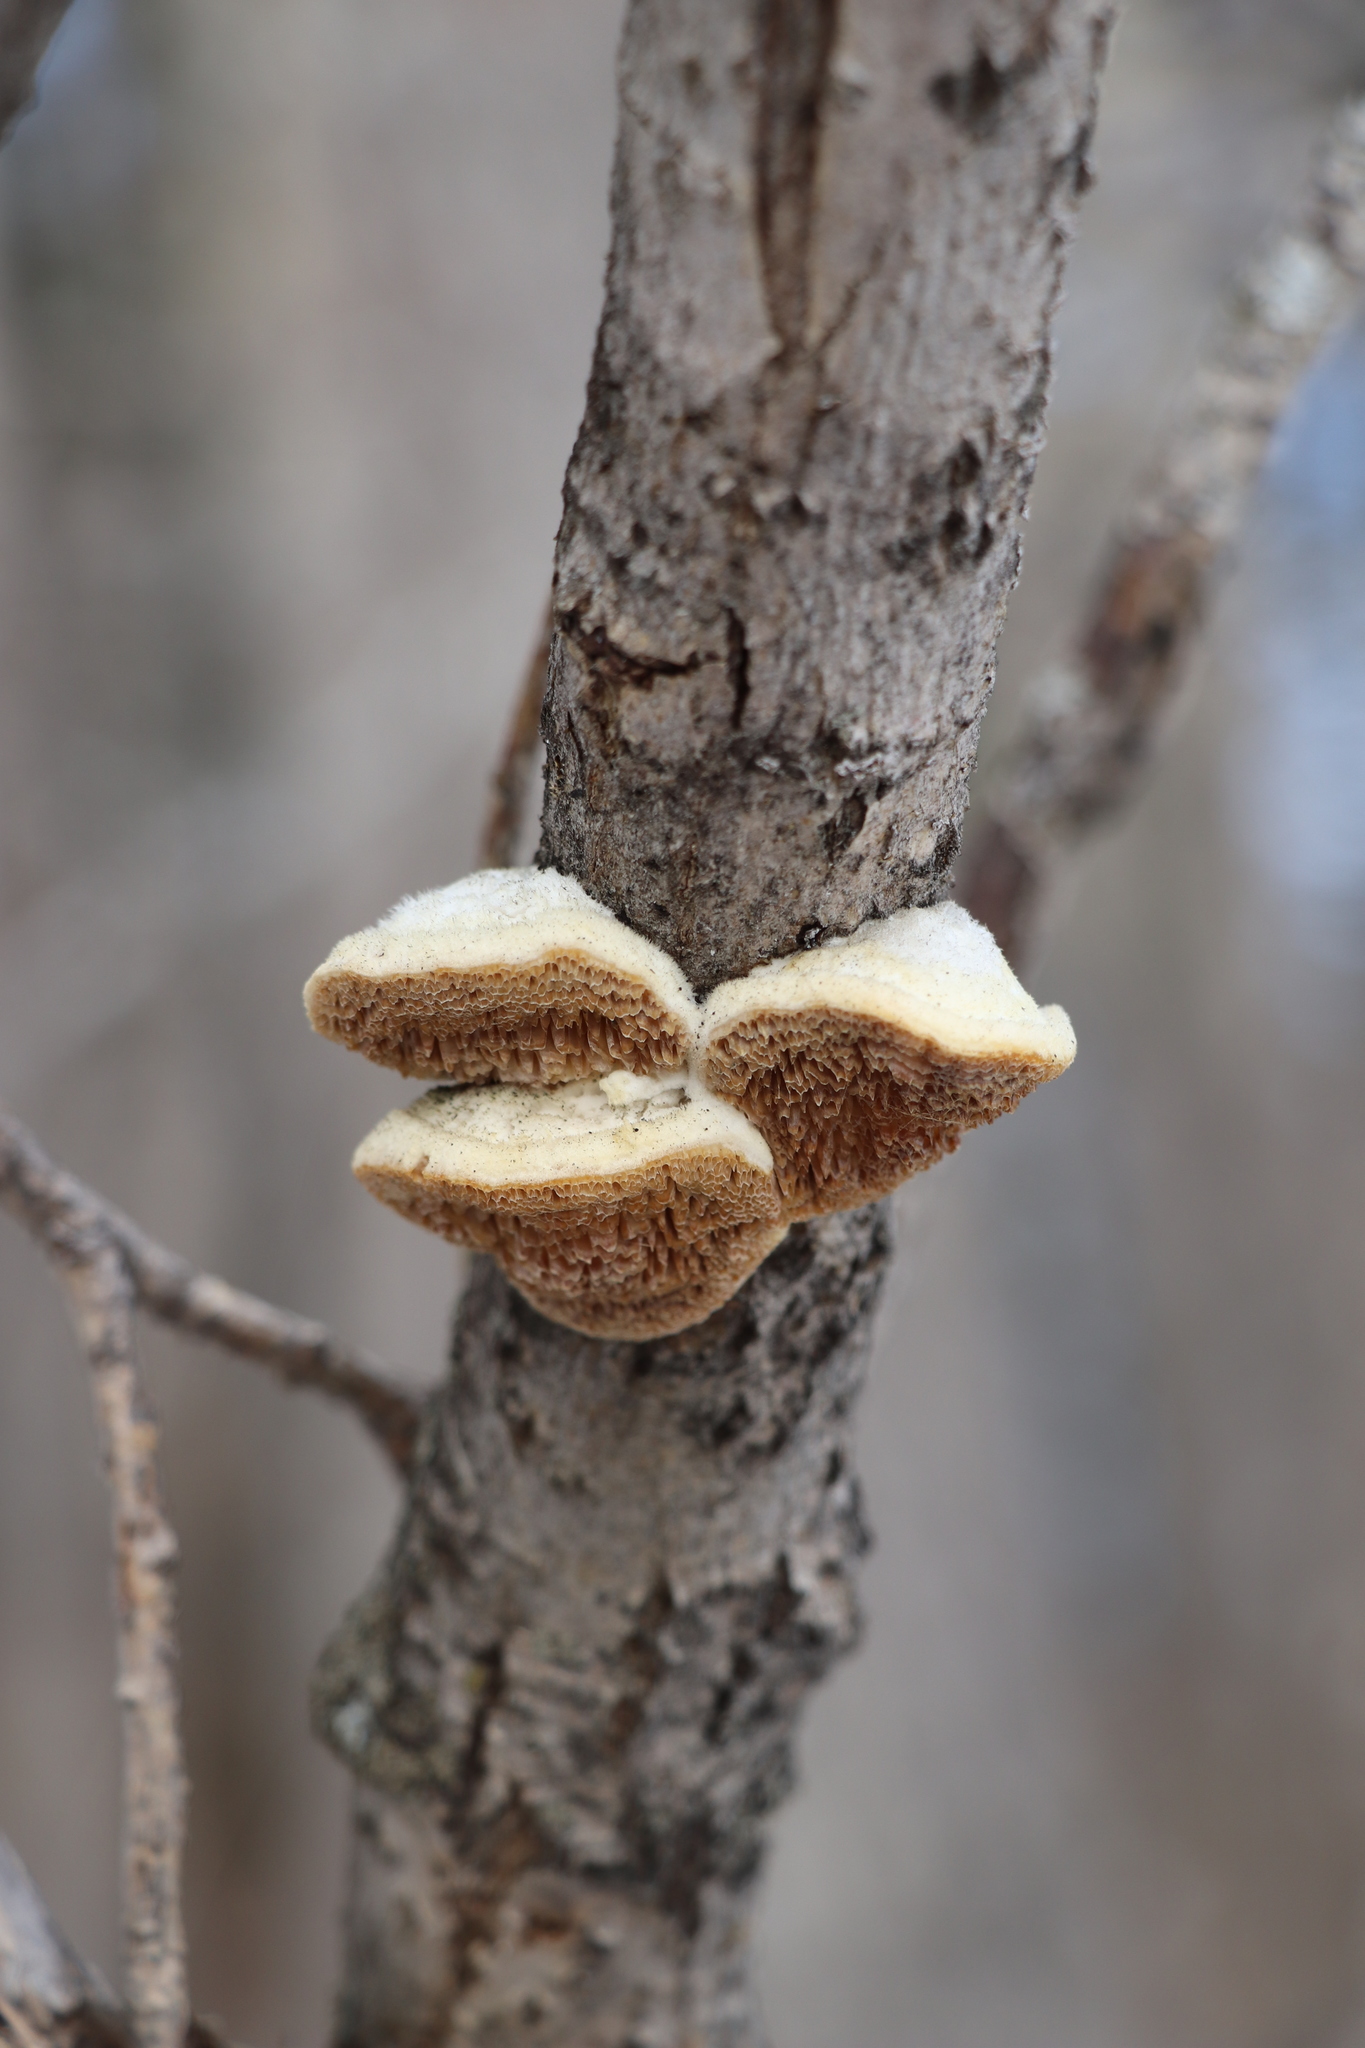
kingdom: Fungi
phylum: Basidiomycota
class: Agaricomycetes
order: Polyporales
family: Polyporaceae
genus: Trametes
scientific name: Trametes suaveolens
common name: Fragrant bracket
